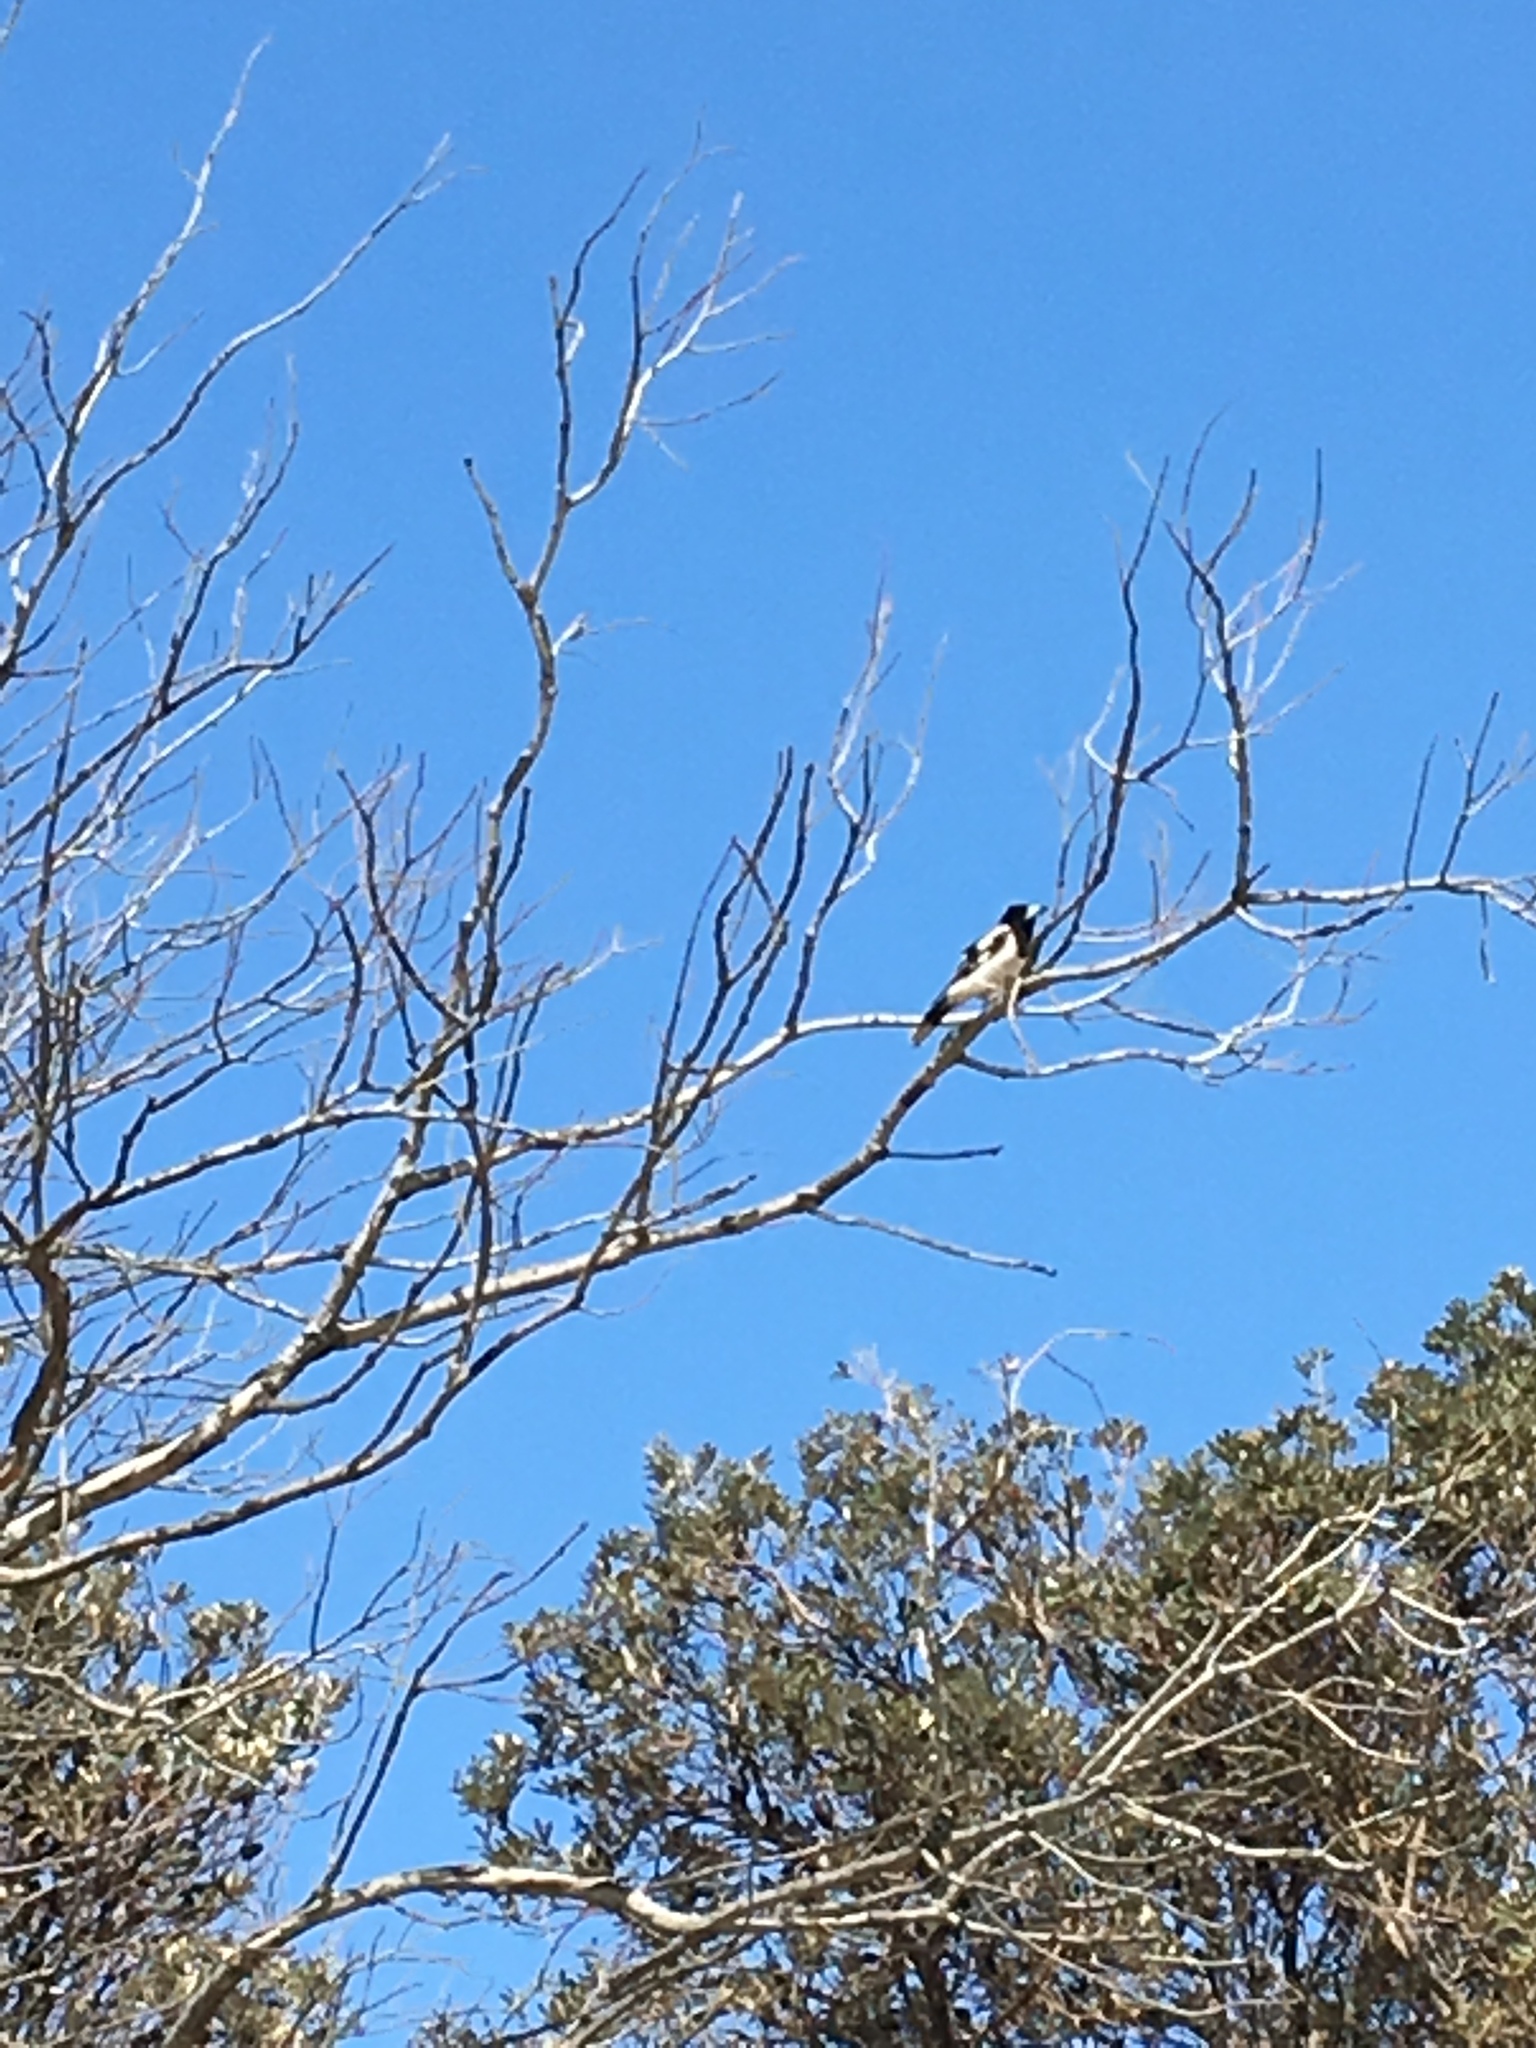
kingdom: Animalia
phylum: Chordata
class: Aves
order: Passeriformes
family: Cracticidae
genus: Cracticus
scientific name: Cracticus nigrogularis
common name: Pied butcherbird
